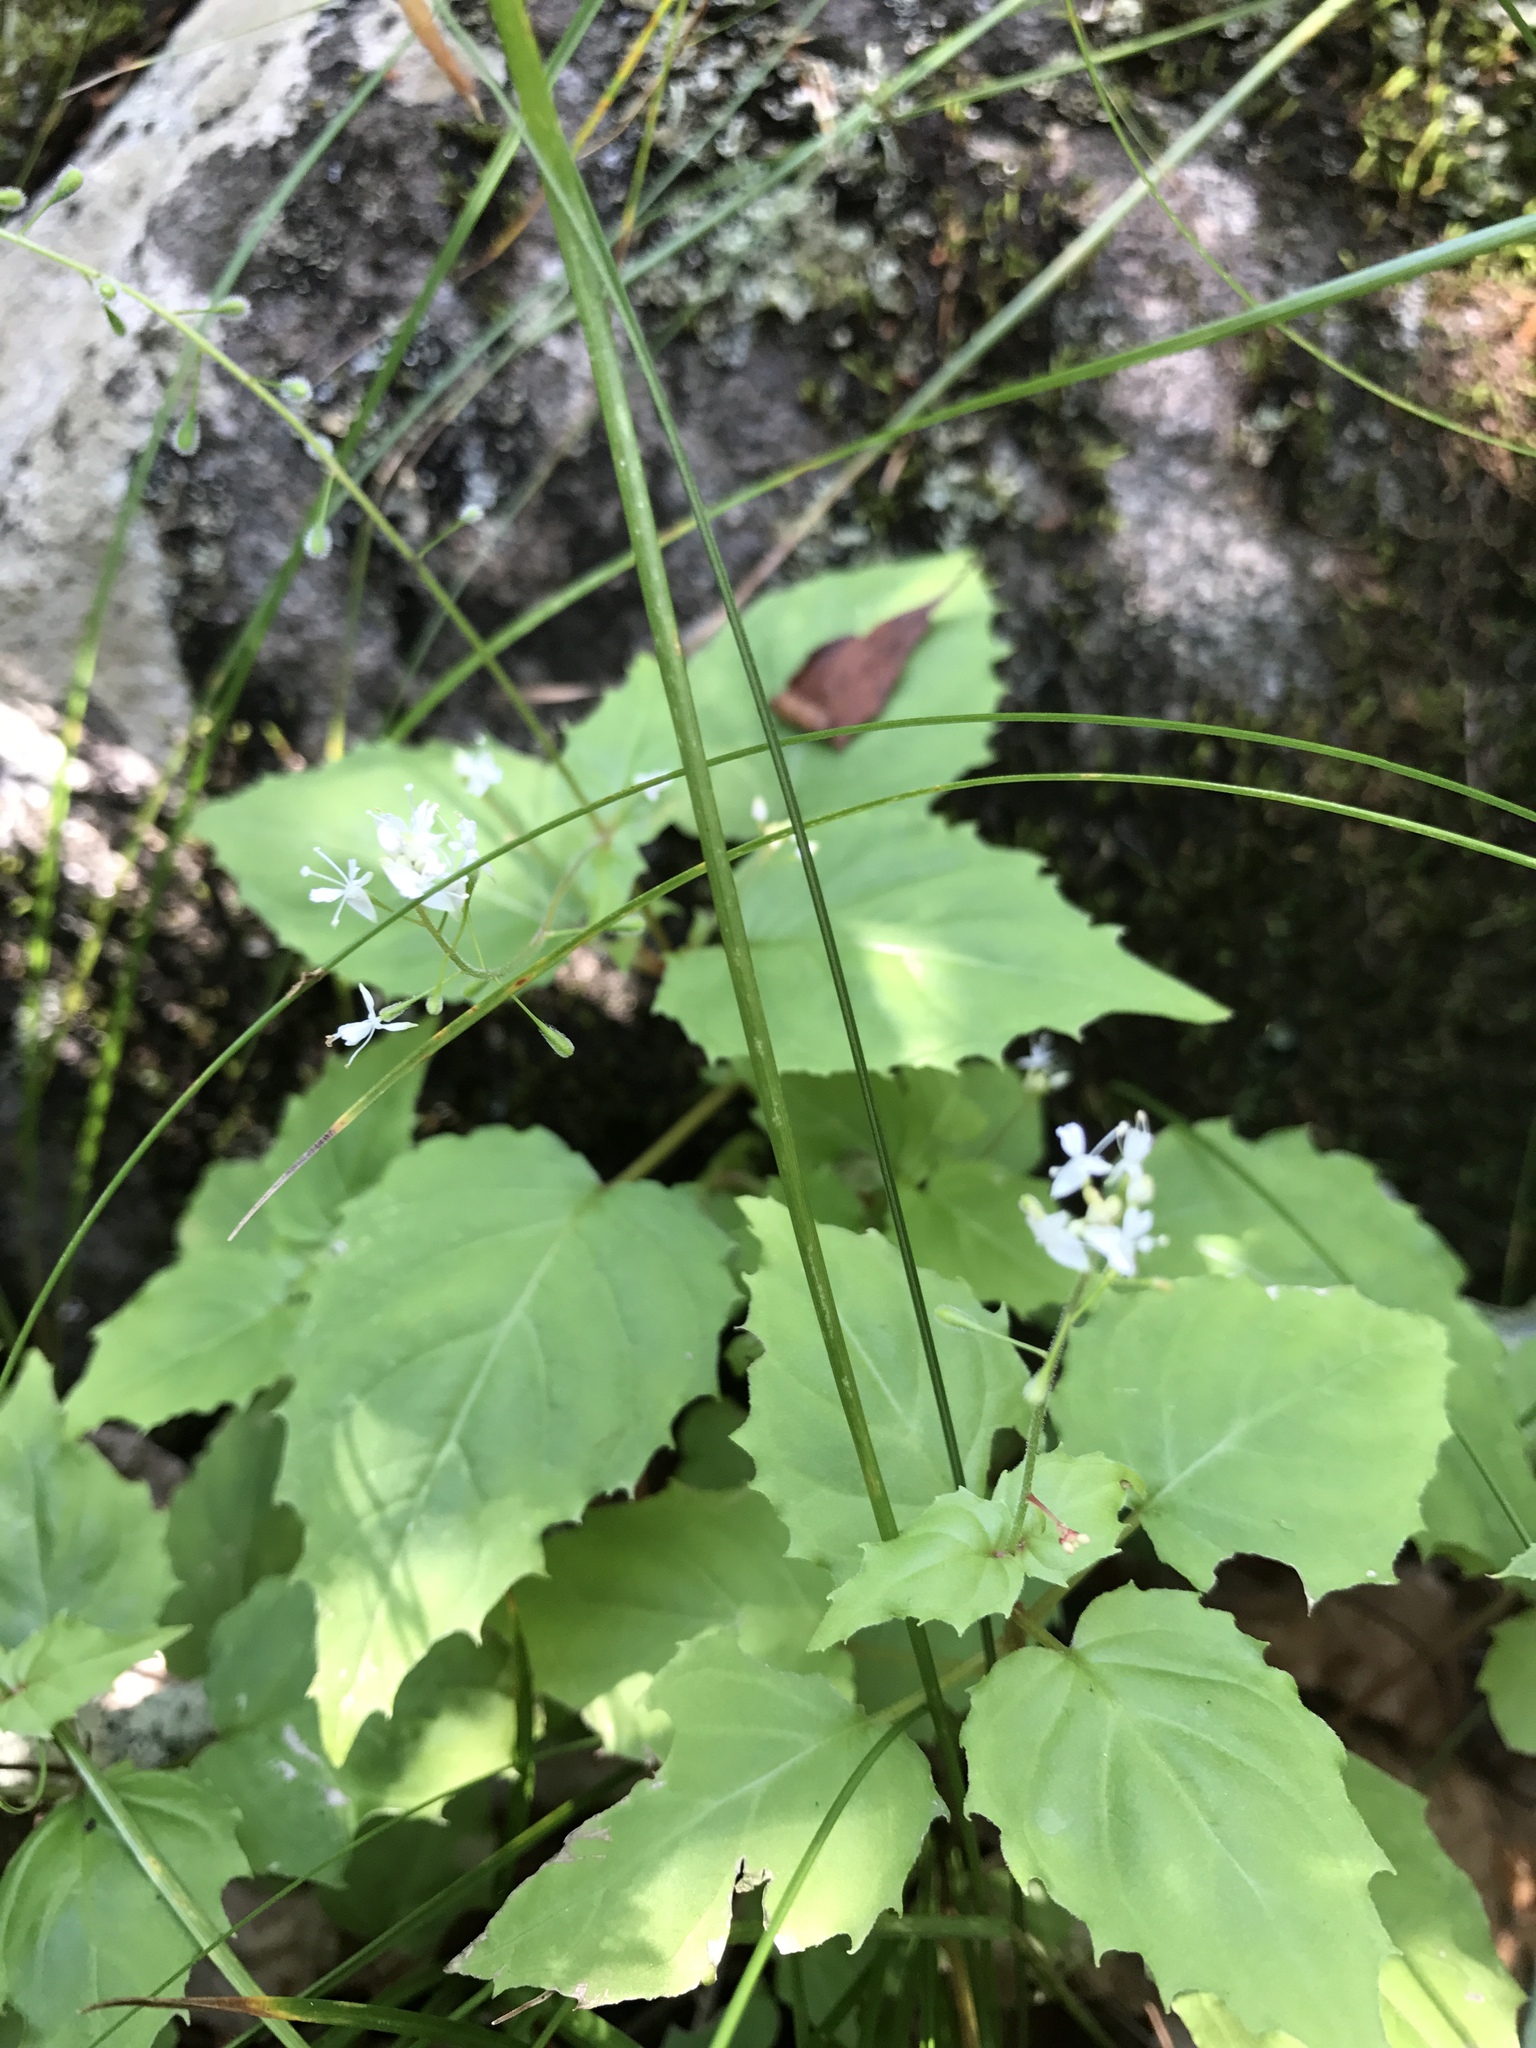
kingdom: Plantae
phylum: Tracheophyta
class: Magnoliopsida
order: Myrtales
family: Onagraceae
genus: Circaea
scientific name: Circaea alpina
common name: Alpine enchanter's-nightshade
